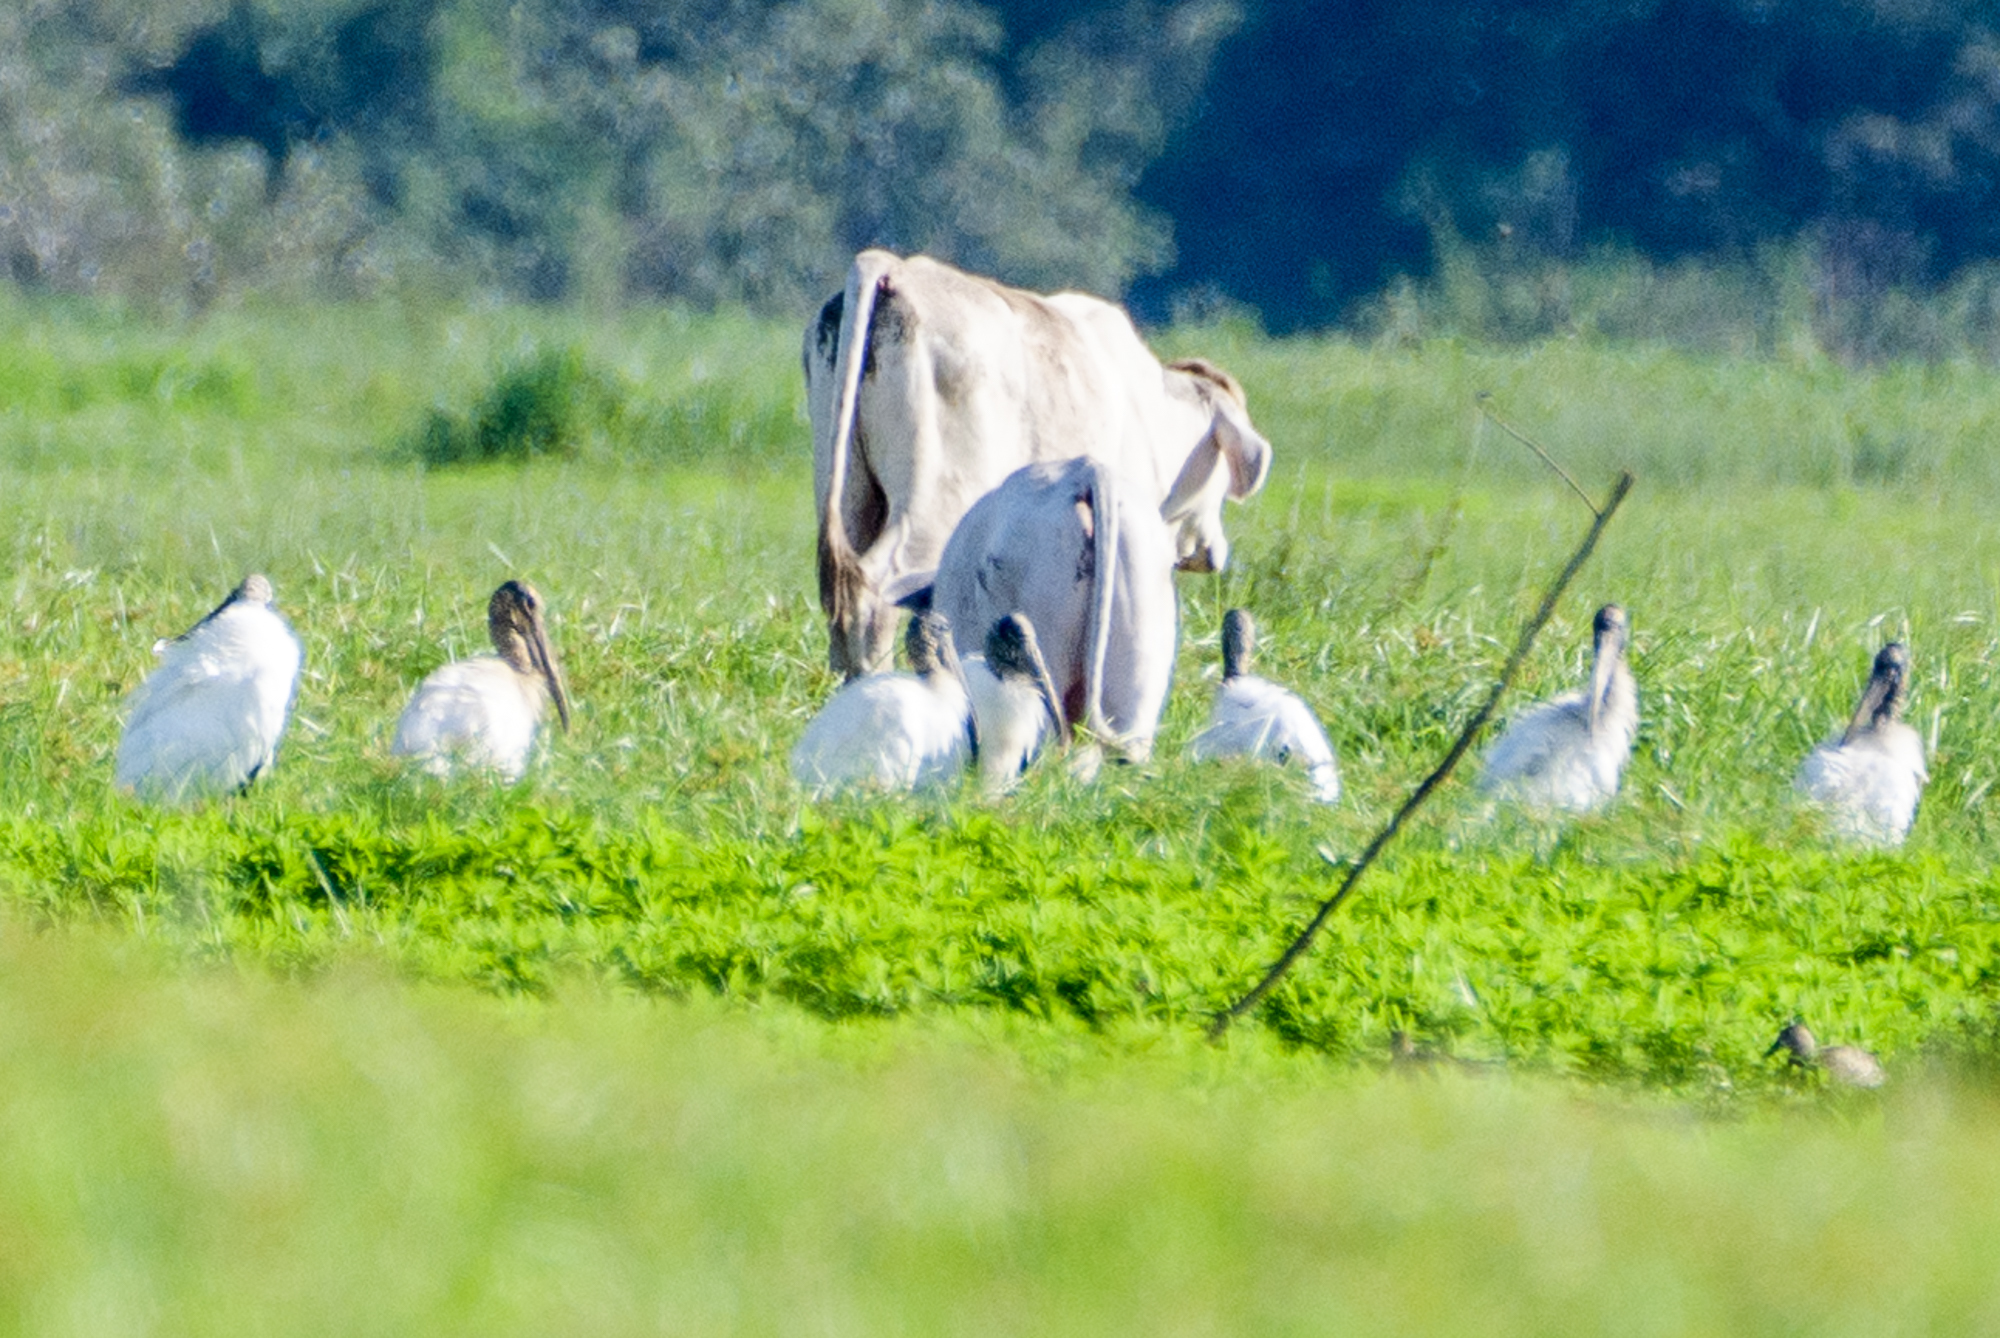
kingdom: Animalia
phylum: Chordata
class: Aves
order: Ciconiiformes
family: Ciconiidae
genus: Mycteria
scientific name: Mycteria americana
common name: Wood stork
